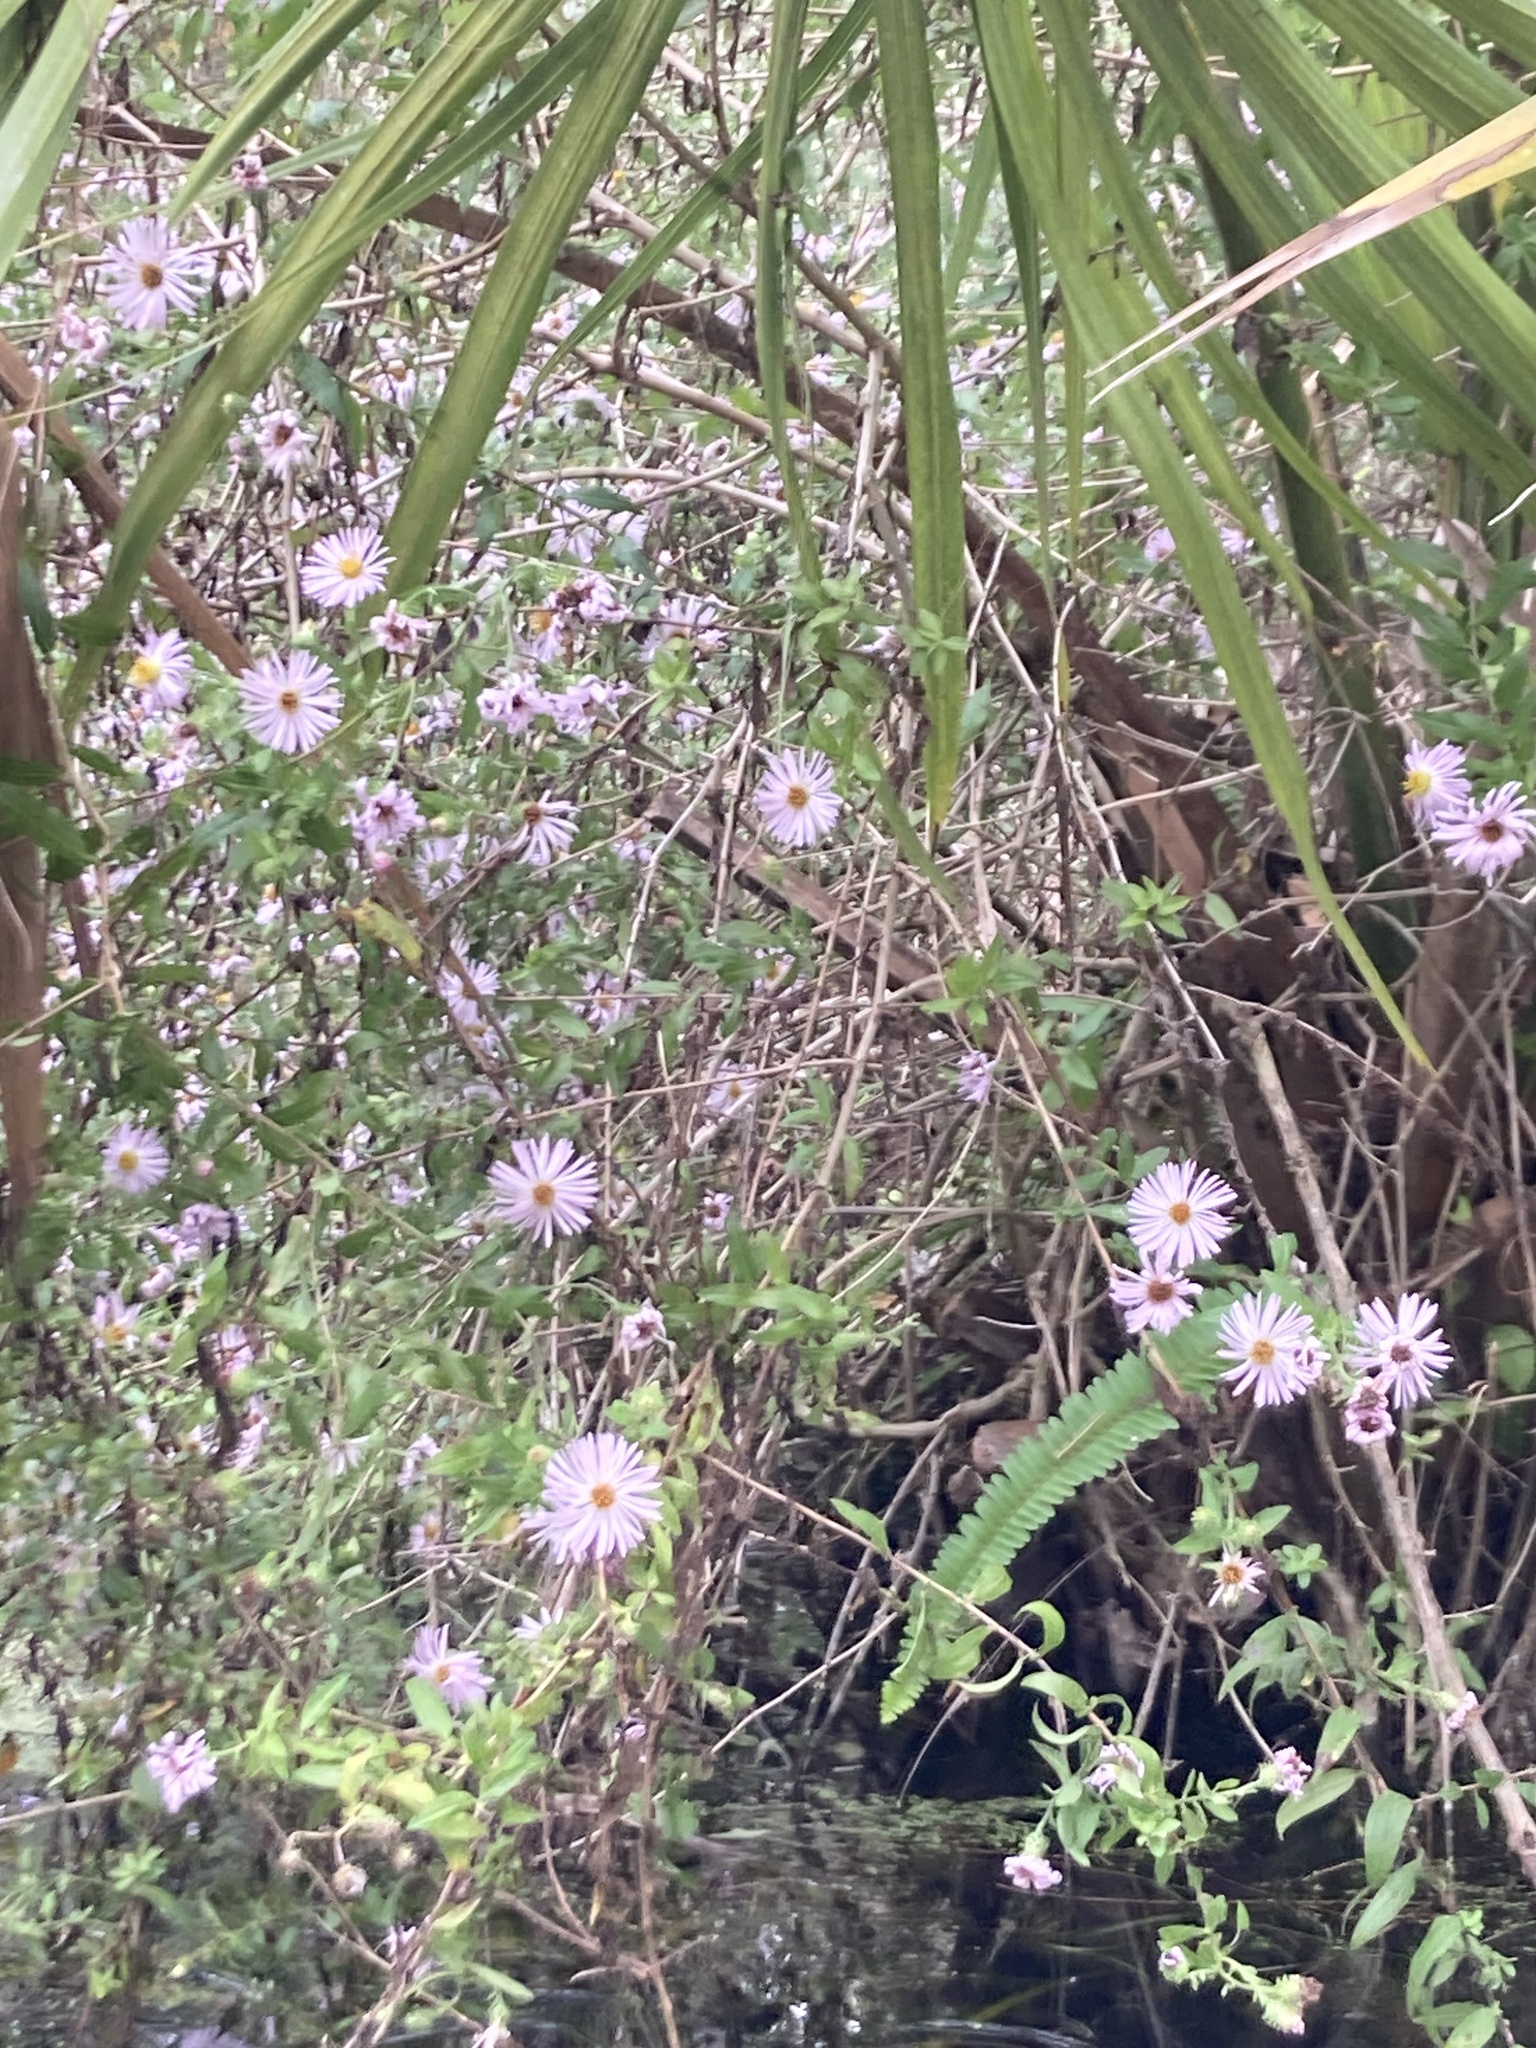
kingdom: Plantae
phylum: Tracheophyta
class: Magnoliopsida
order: Asterales
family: Asteraceae
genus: Ampelaster
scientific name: Ampelaster carolinianus
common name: Climbing aster
